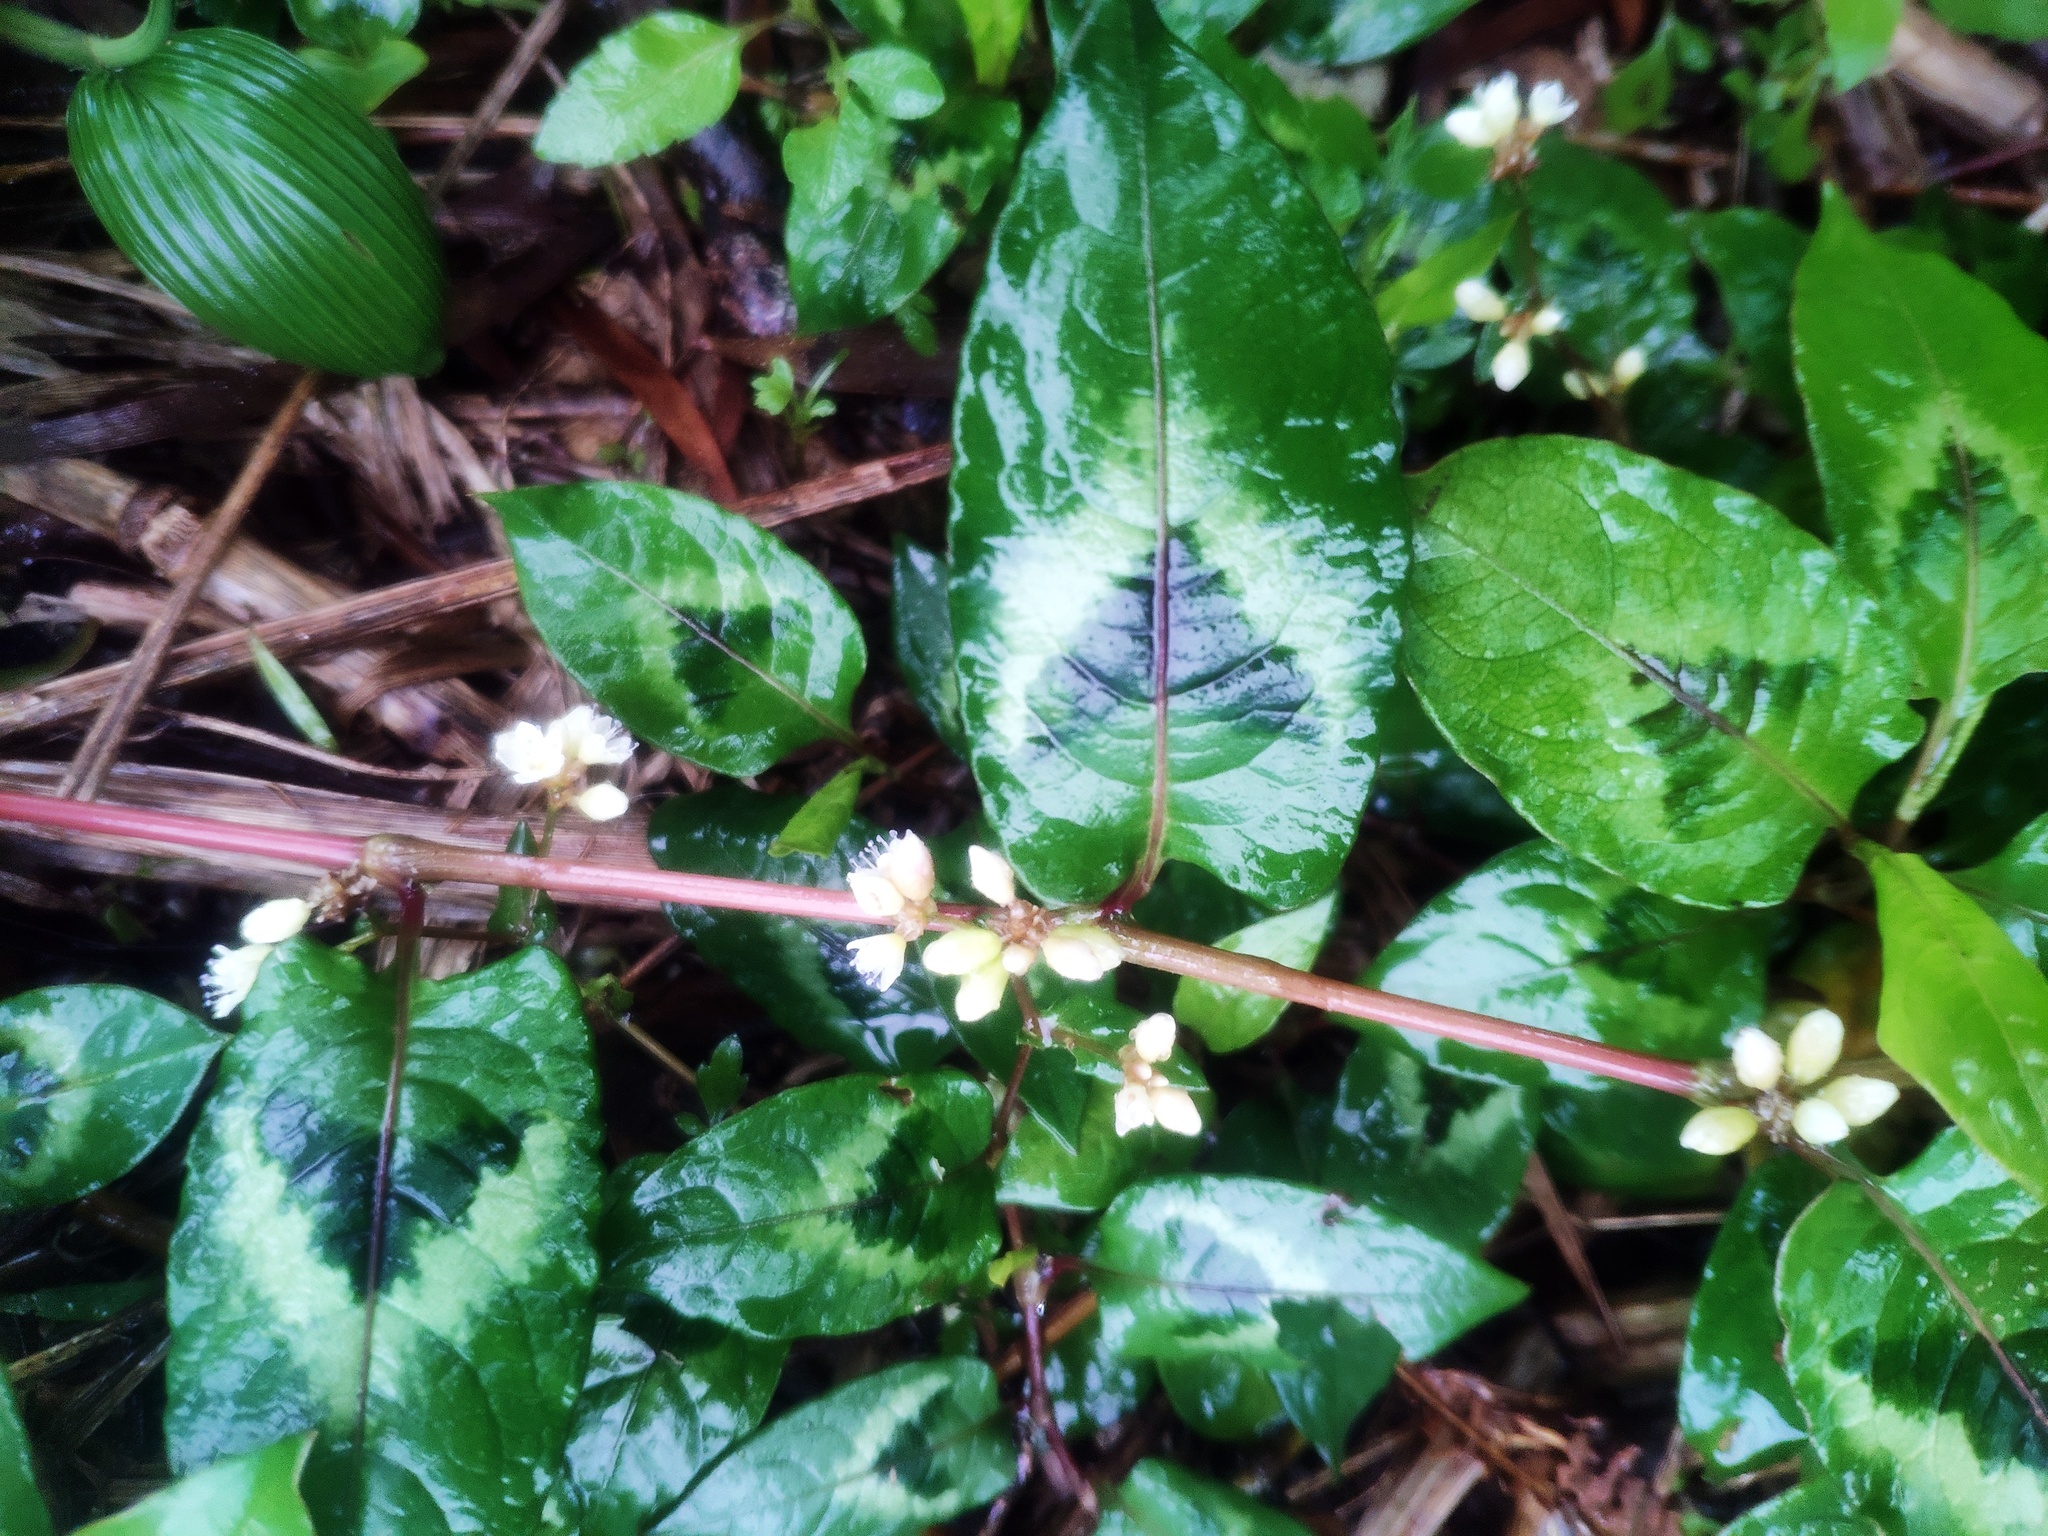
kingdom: Plantae
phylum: Tracheophyta
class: Magnoliopsida
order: Caryophyllales
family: Polygonaceae
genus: Persicaria
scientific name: Persicaria chinensis
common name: Chinese knotweed
